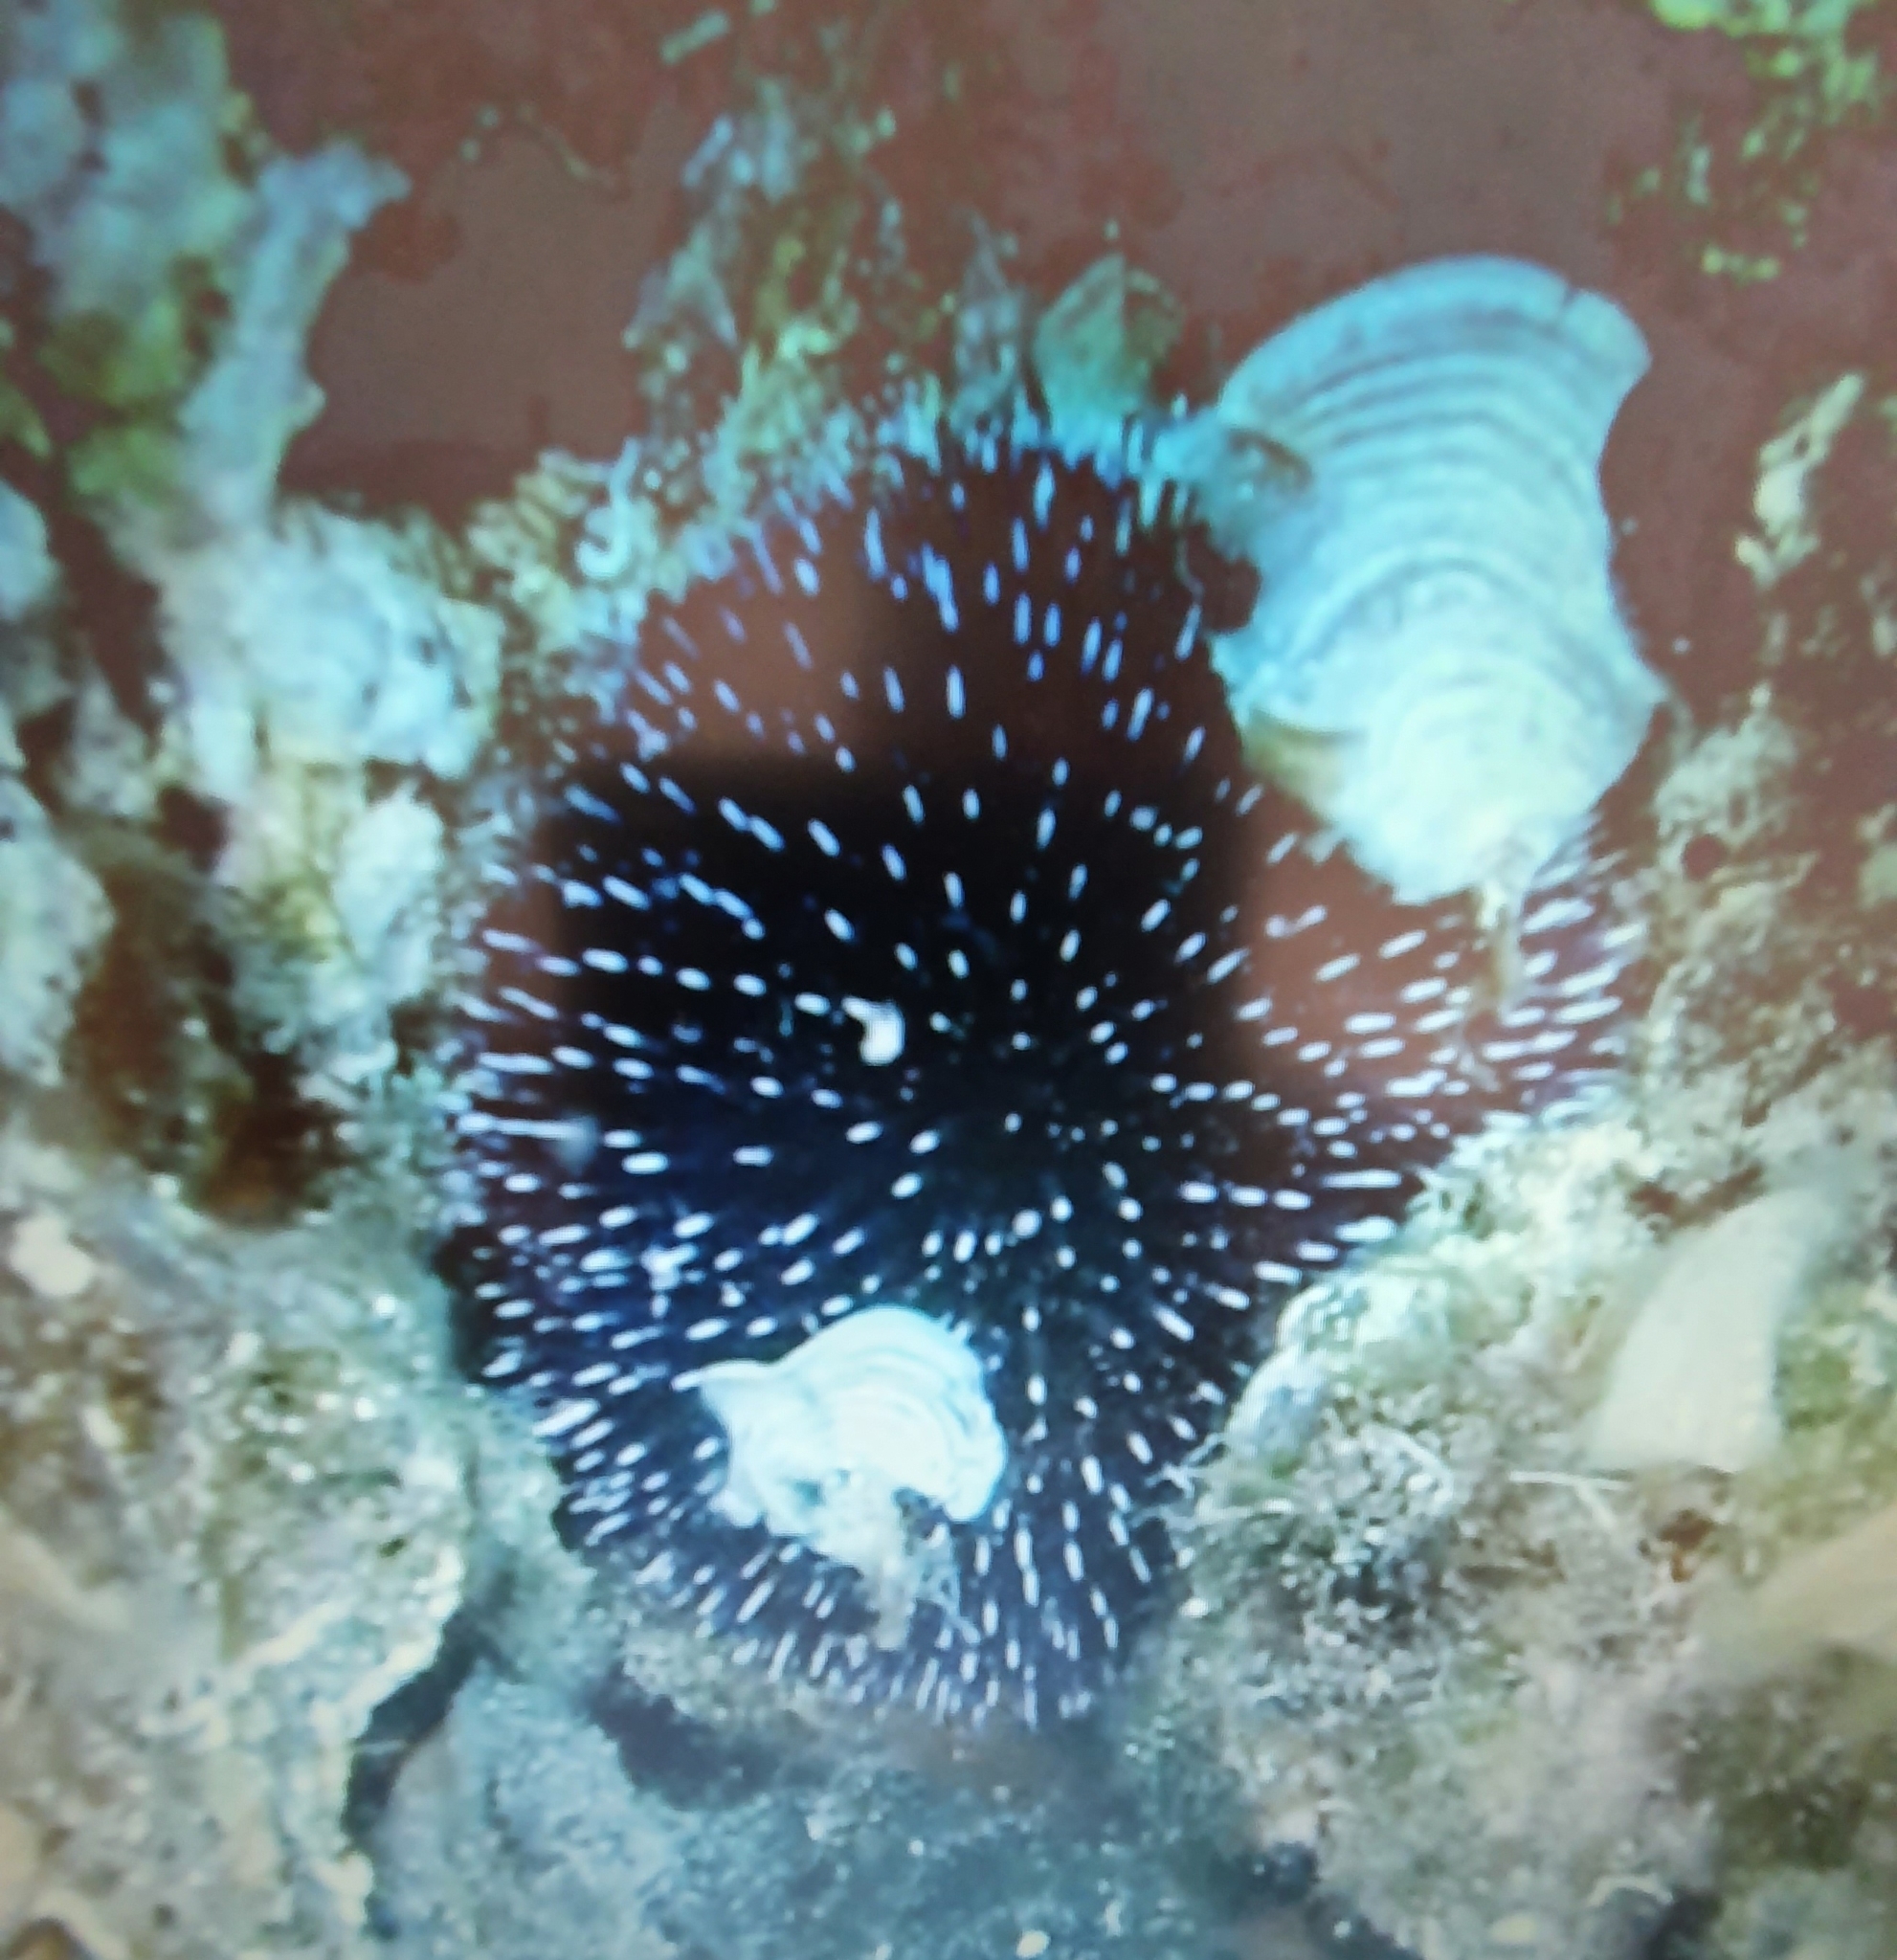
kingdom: Animalia
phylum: Echinodermata
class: Echinoidea
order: Camarodonta
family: Toxopneustidae
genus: Sphaerechinus
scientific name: Sphaerechinus granularis
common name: Violet sea urchin
